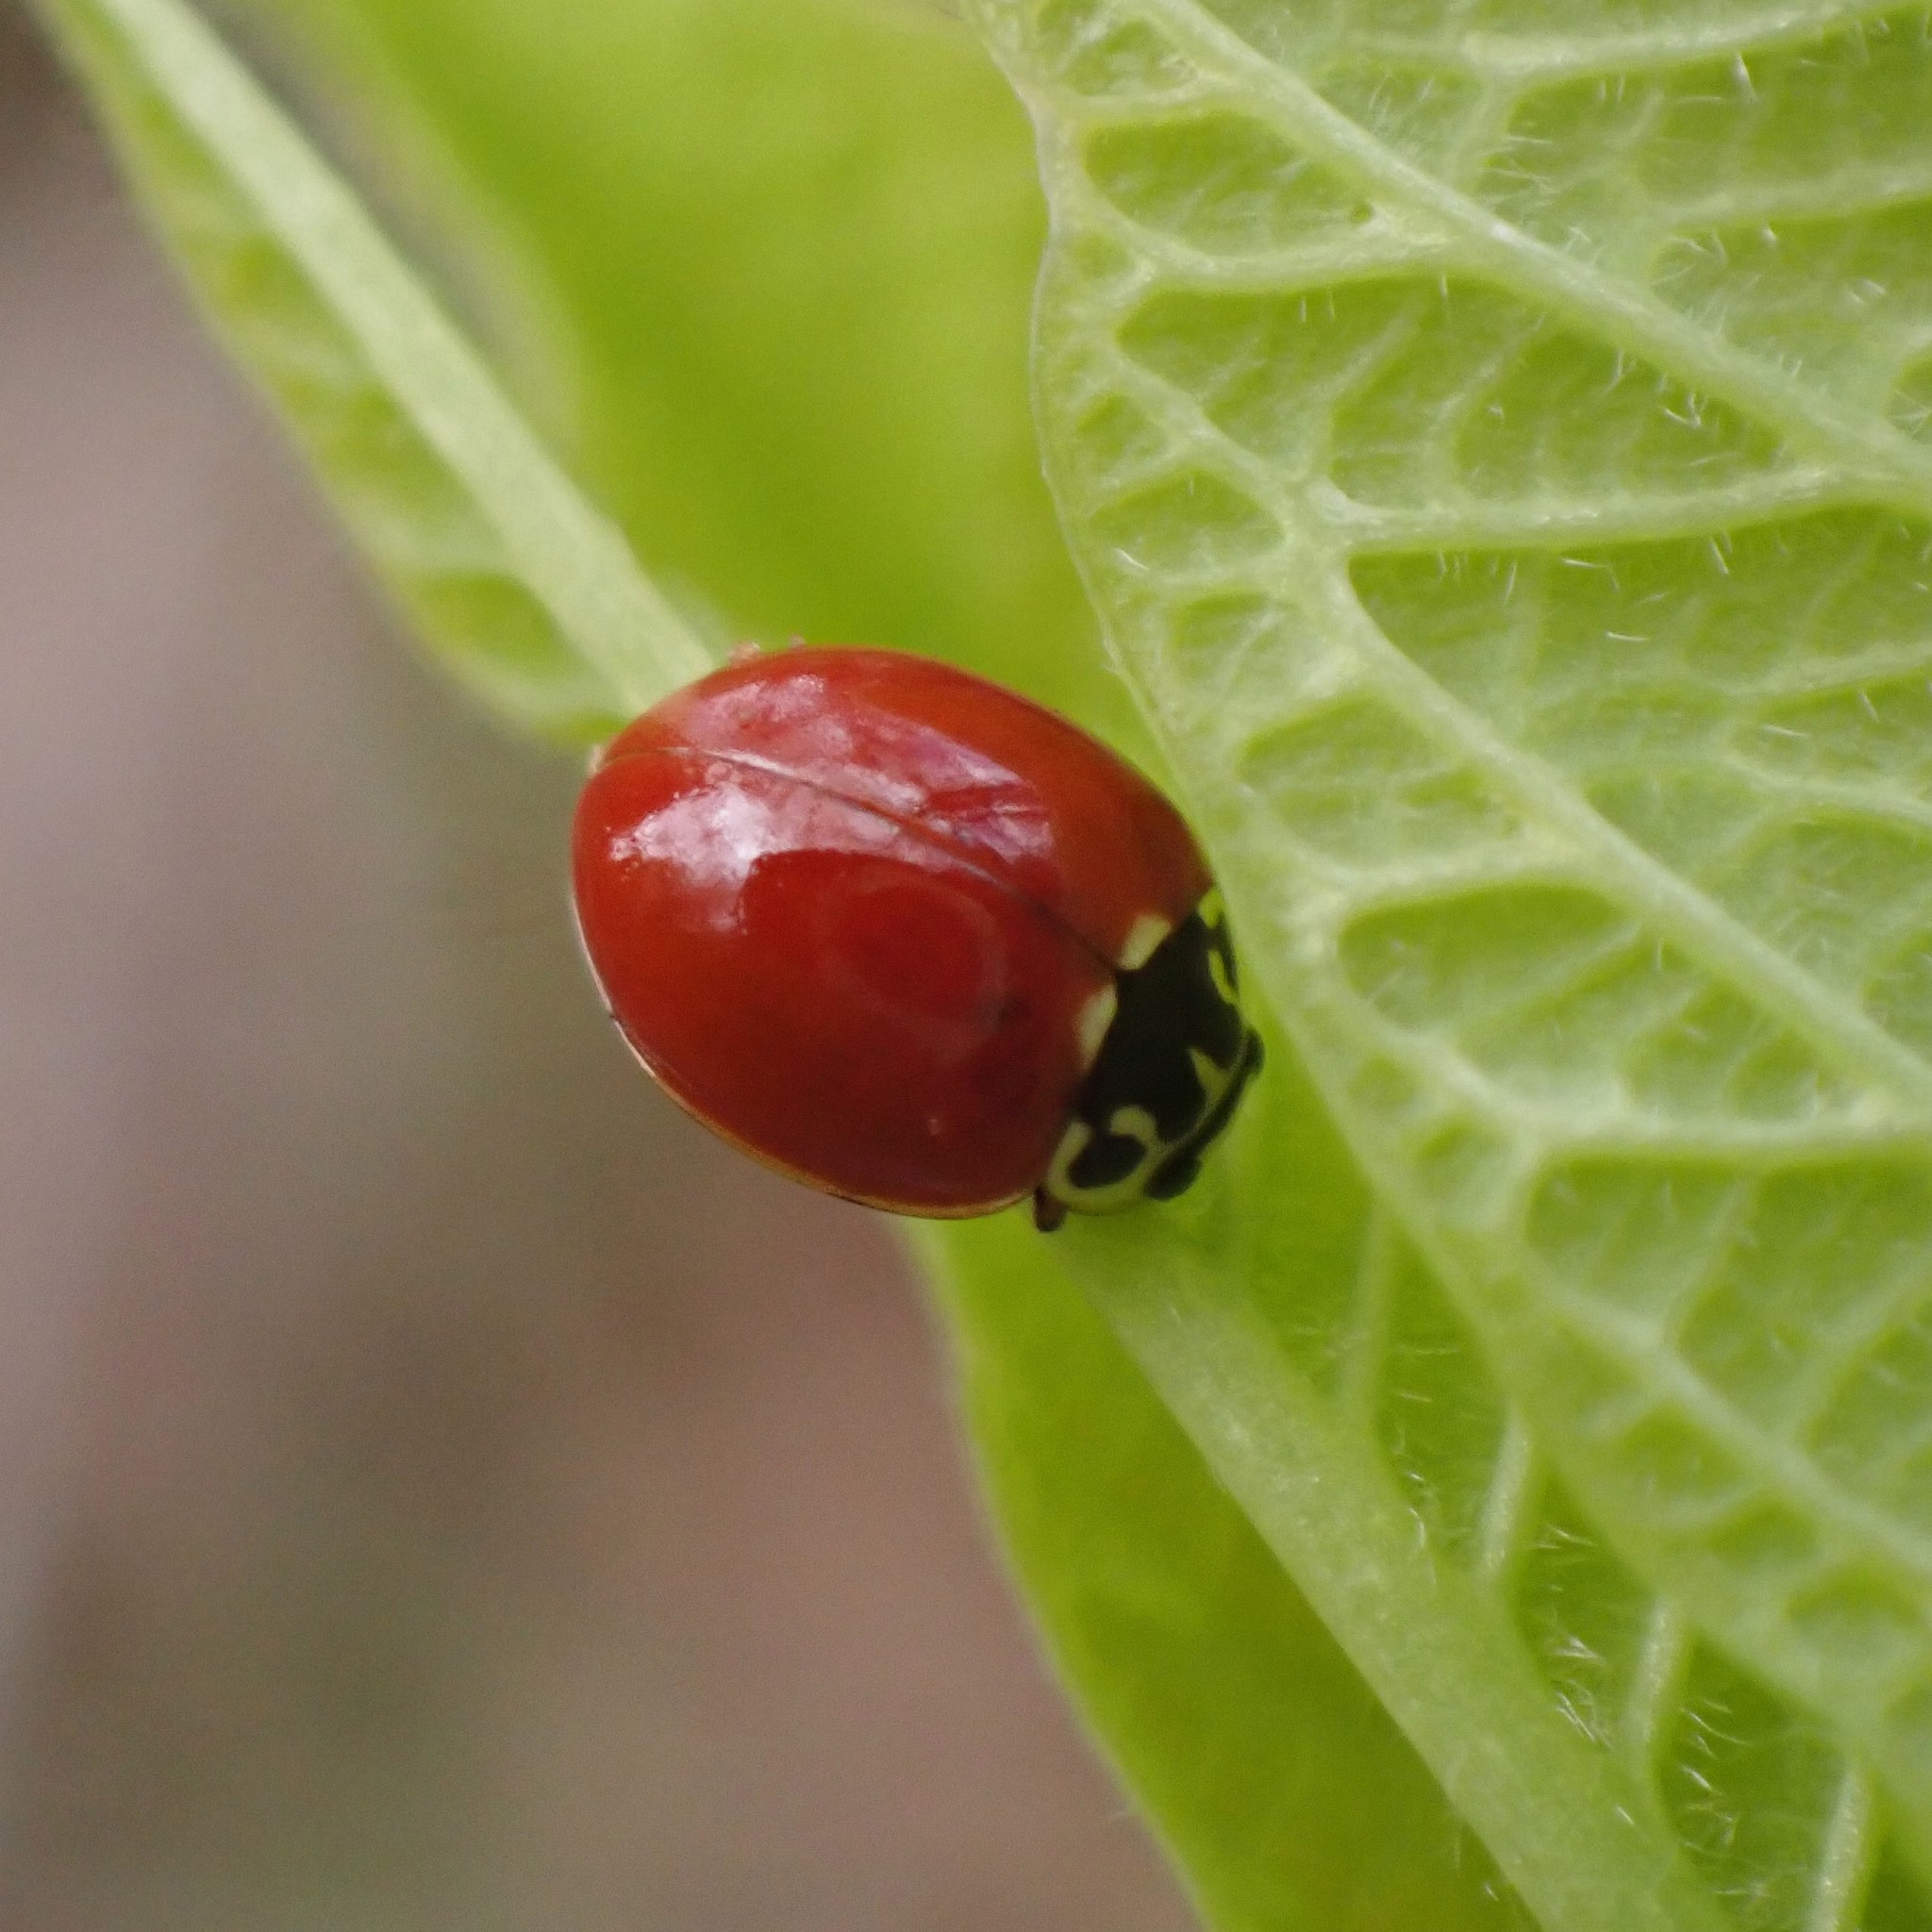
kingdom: Animalia
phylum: Arthropoda
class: Insecta
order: Coleoptera
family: Coccinellidae
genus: Cycloneda
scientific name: Cycloneda polita
